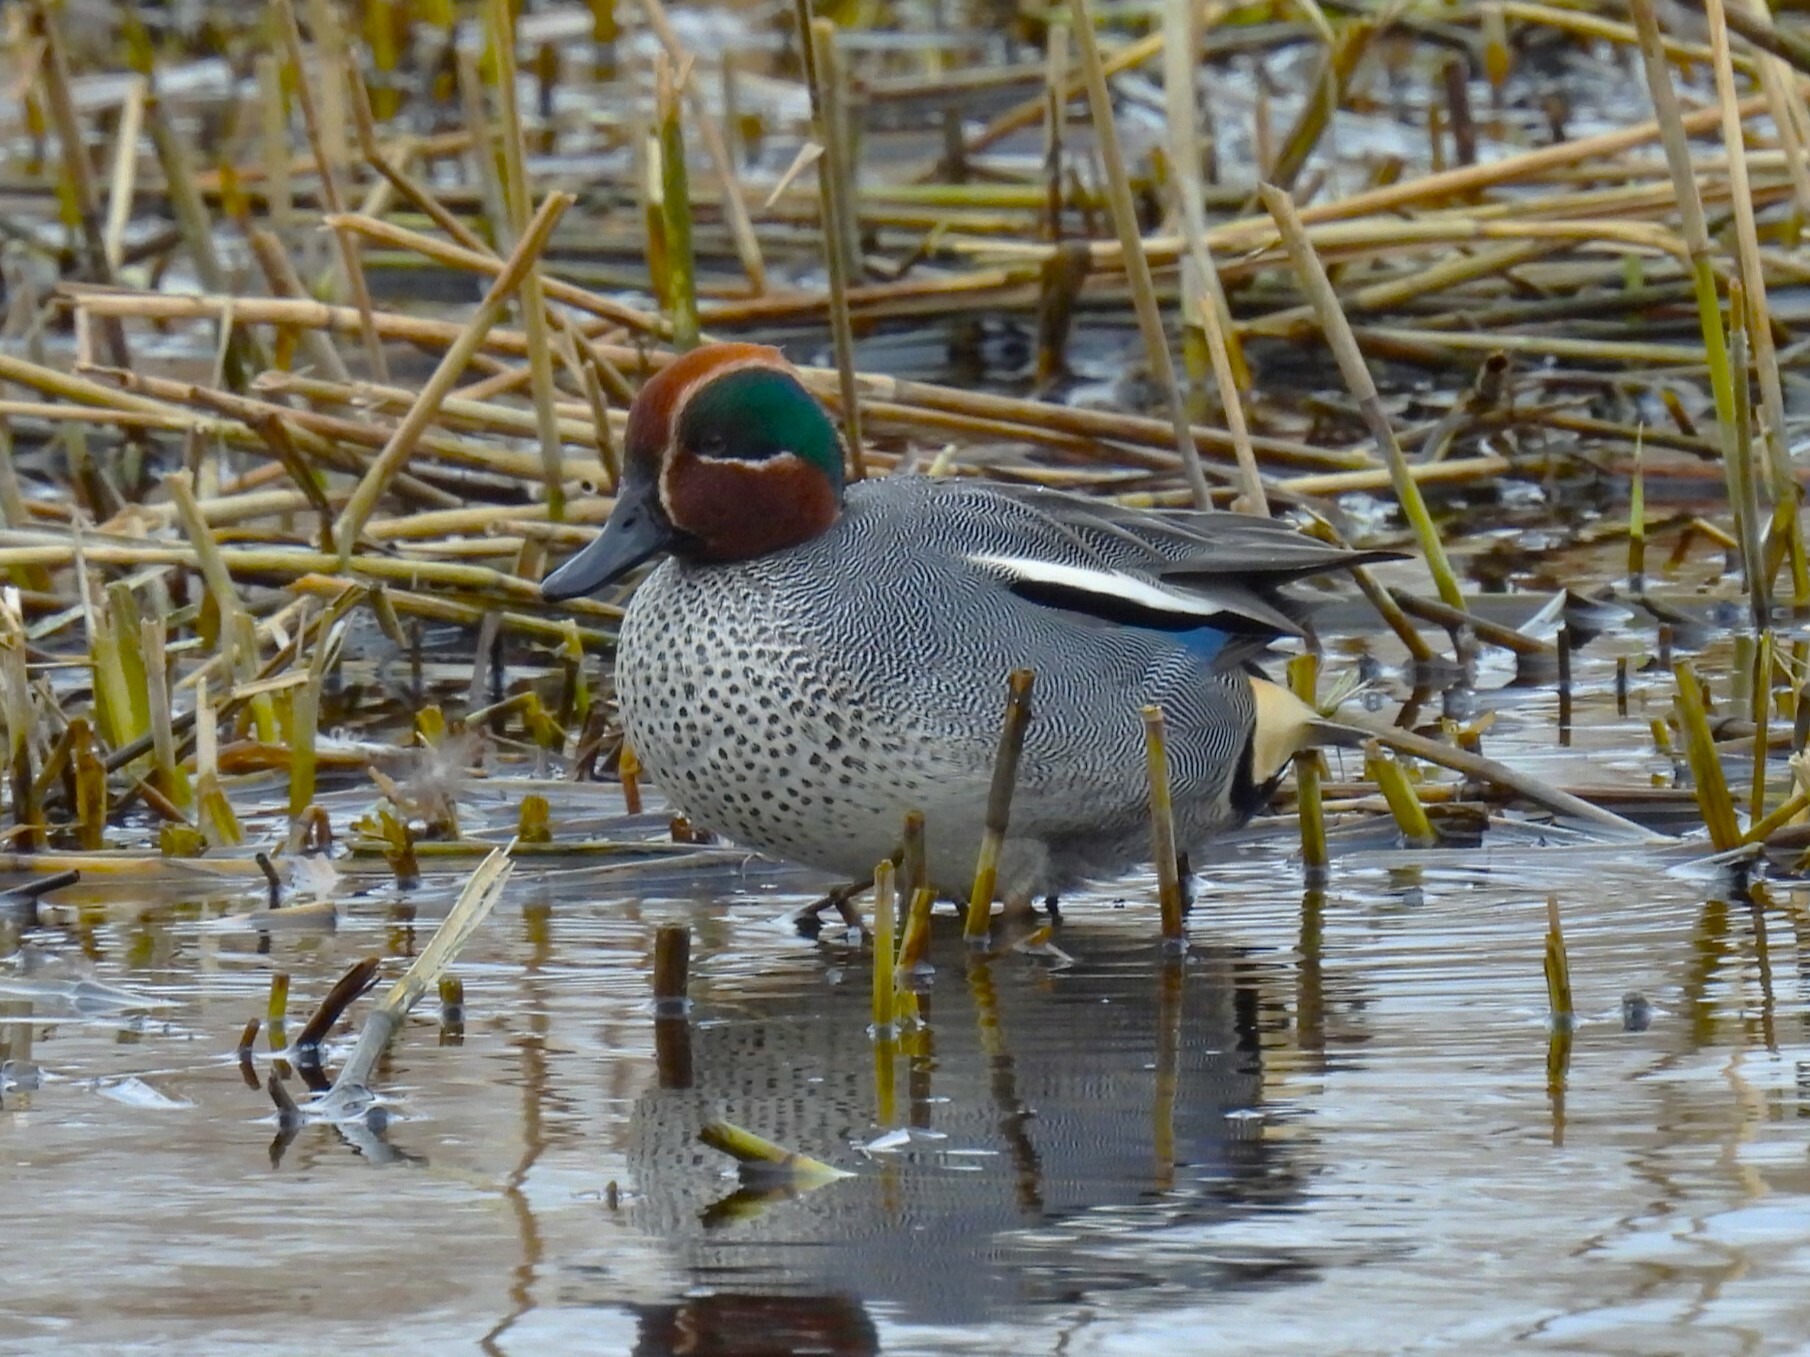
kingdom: Animalia
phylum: Chordata
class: Aves
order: Anseriformes
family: Anatidae
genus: Anas
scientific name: Anas crecca
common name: Eurasian teal
